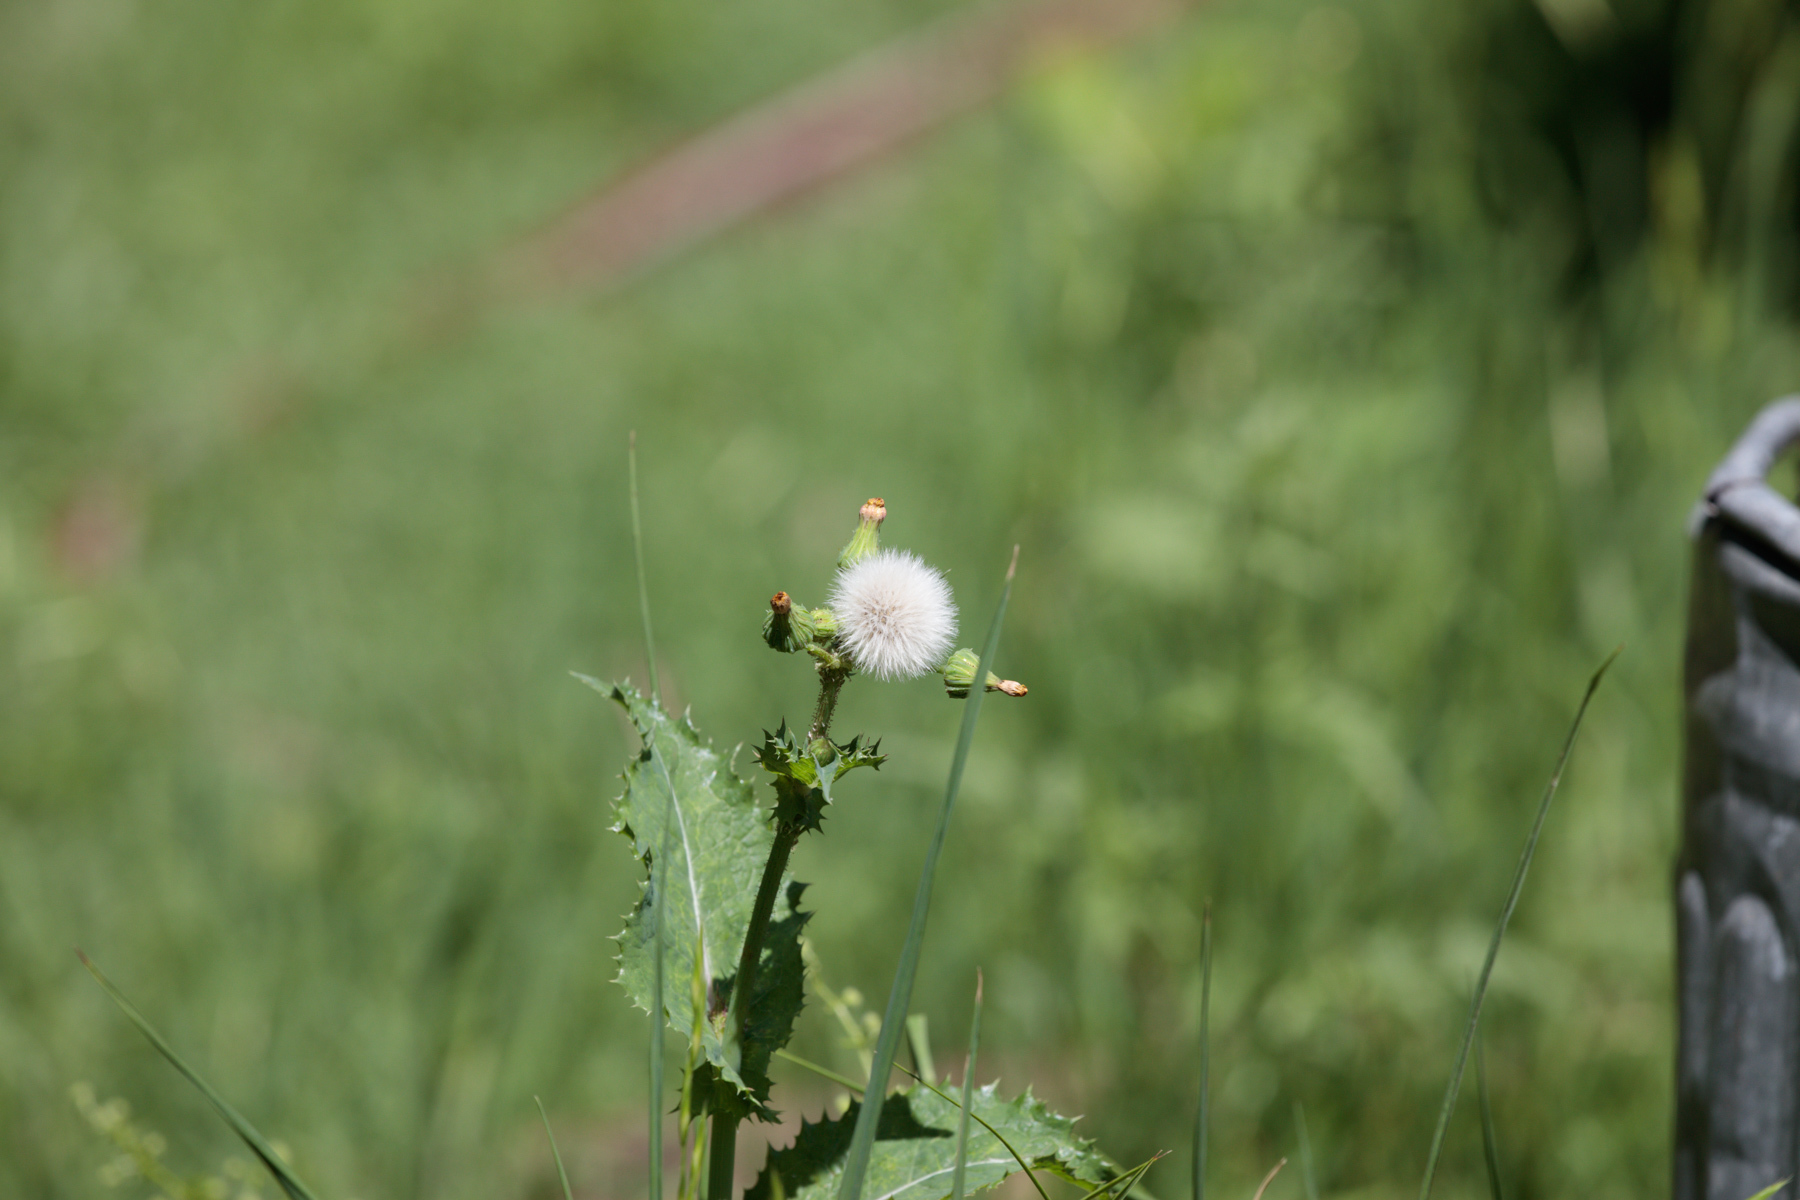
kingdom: Plantae
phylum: Tracheophyta
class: Magnoliopsida
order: Asterales
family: Asteraceae
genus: Sonchus
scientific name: Sonchus asper
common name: Prickly sow-thistle
